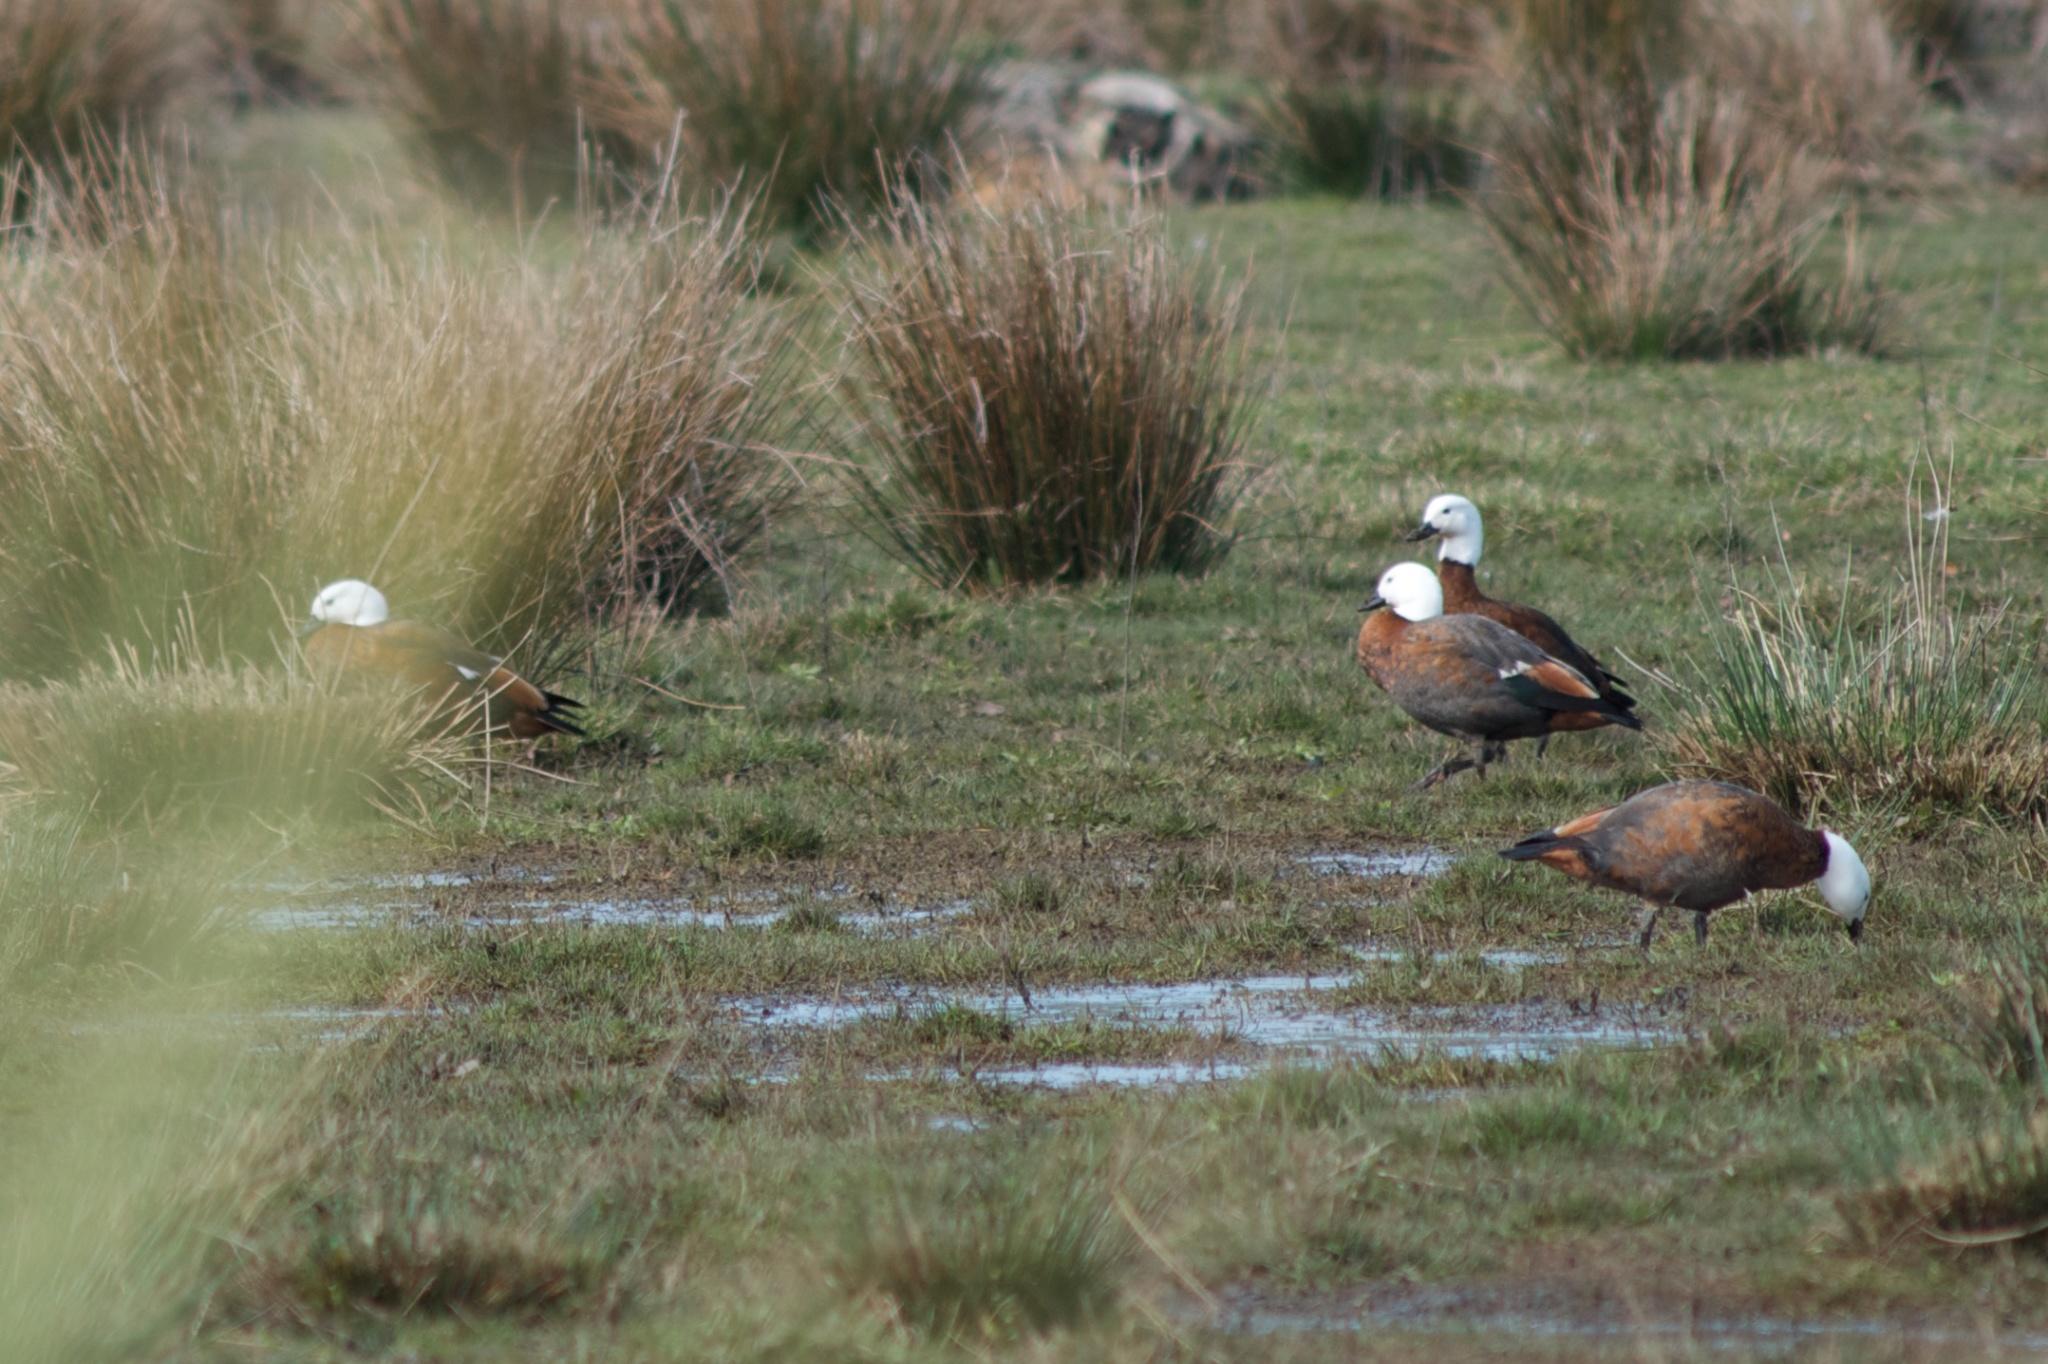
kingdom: Animalia
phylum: Chordata
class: Aves
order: Anseriformes
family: Anatidae
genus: Tadorna
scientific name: Tadorna variegata
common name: Paradise shelduck
